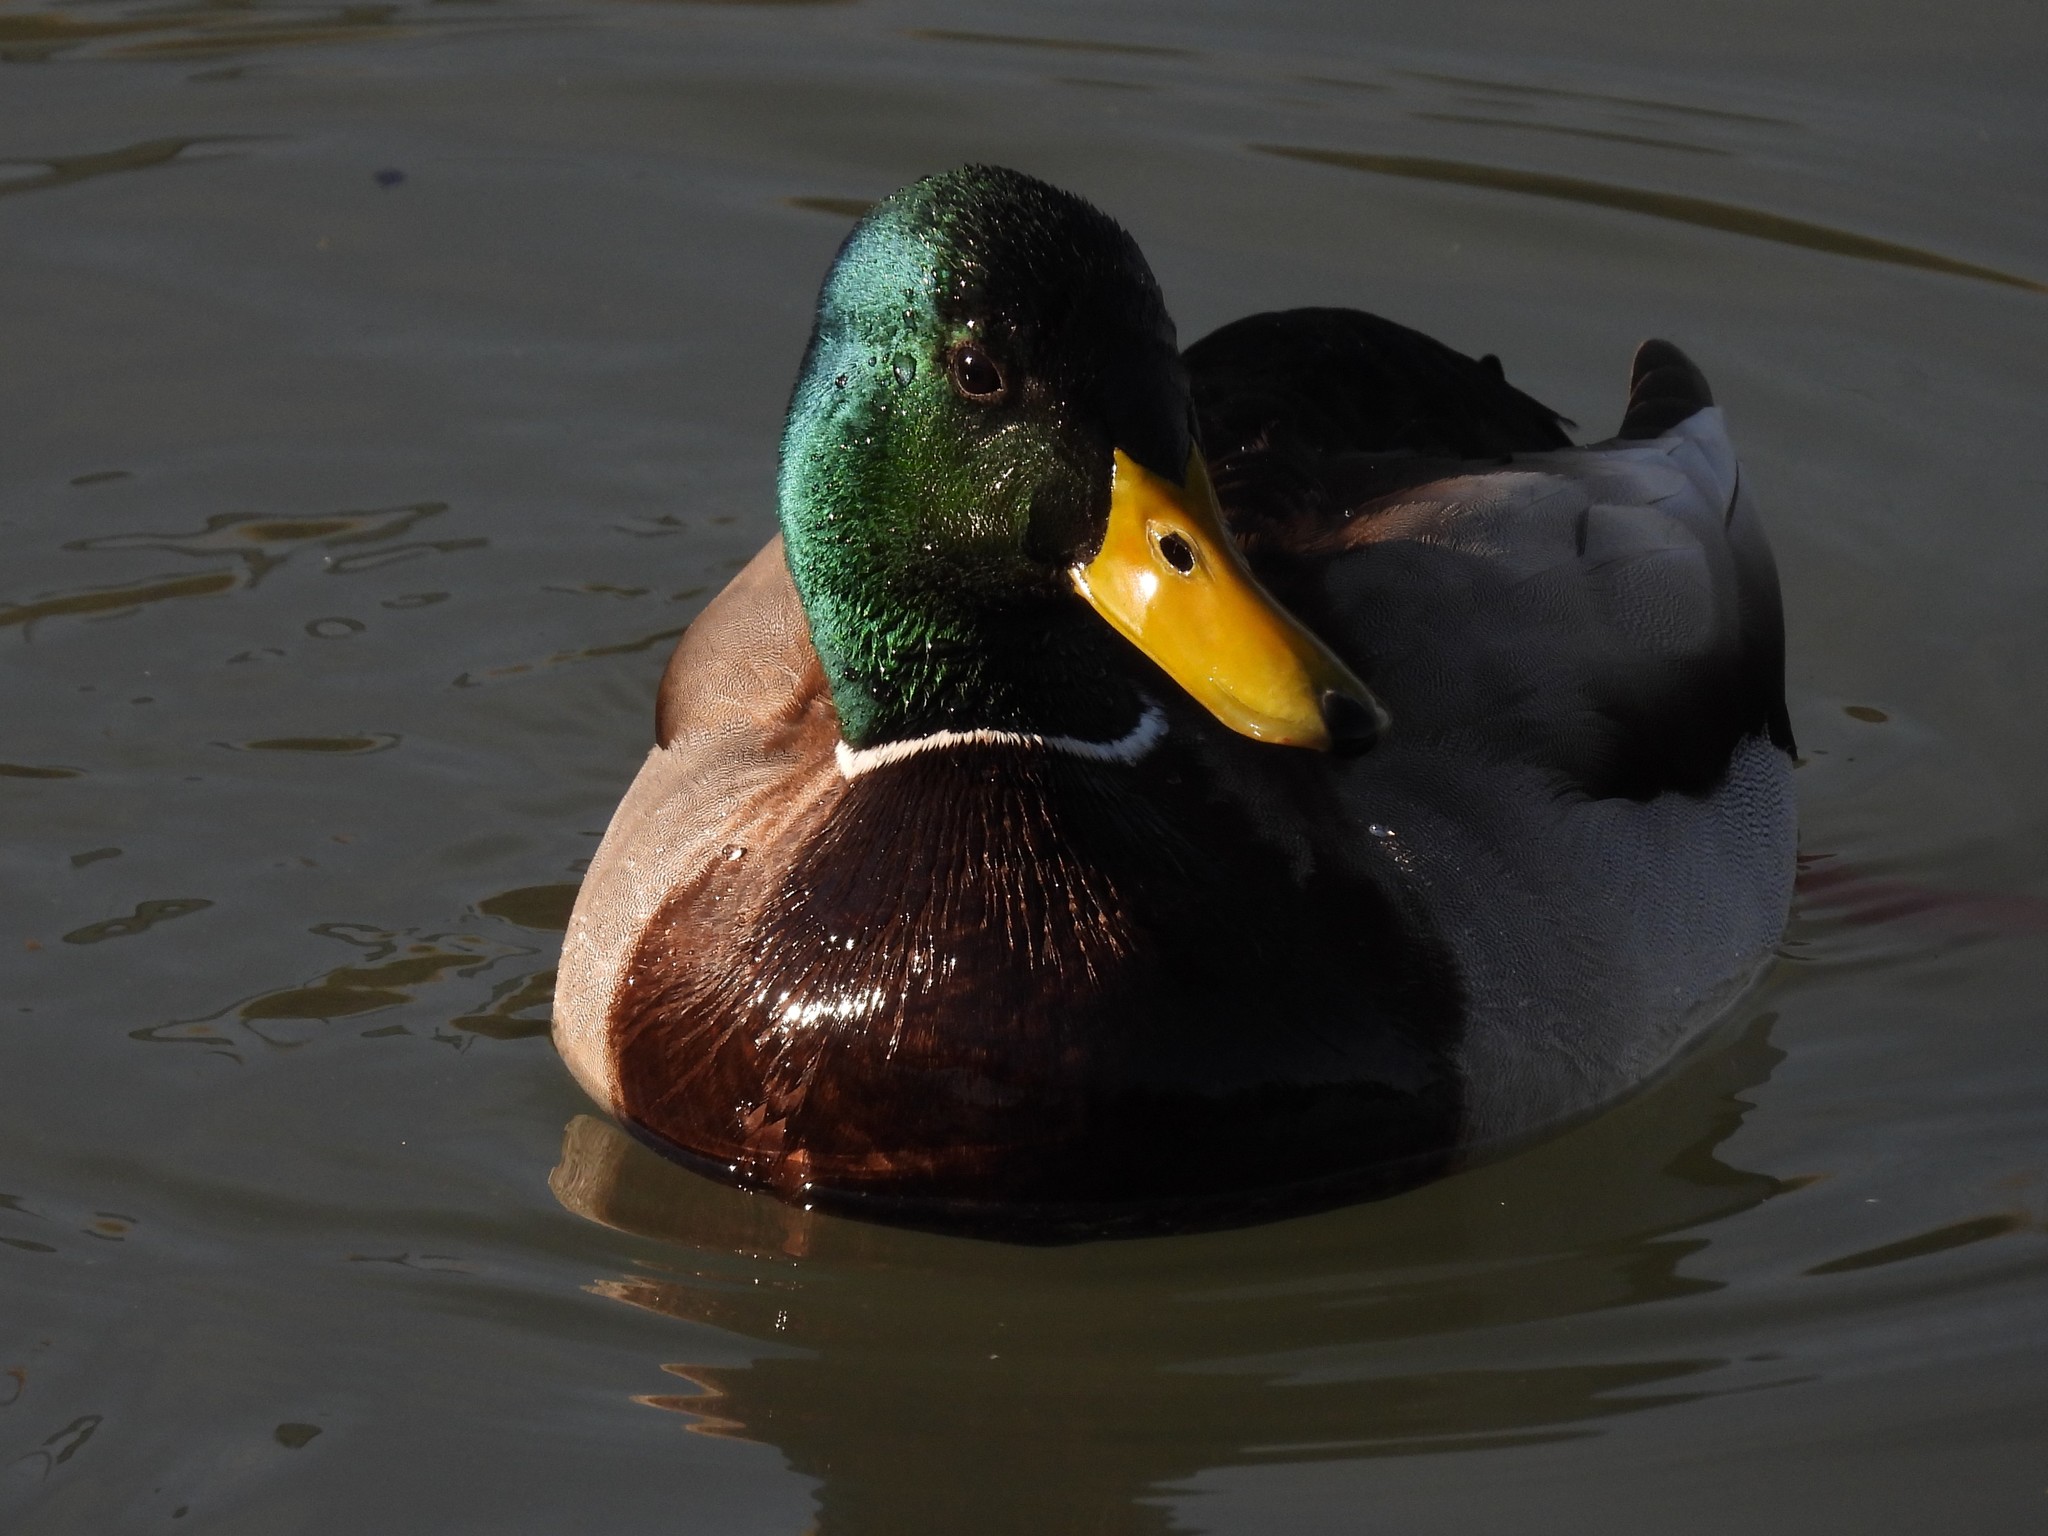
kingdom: Animalia
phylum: Chordata
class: Aves
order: Anseriformes
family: Anatidae
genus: Anas
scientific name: Anas platyrhynchos
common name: Mallard
